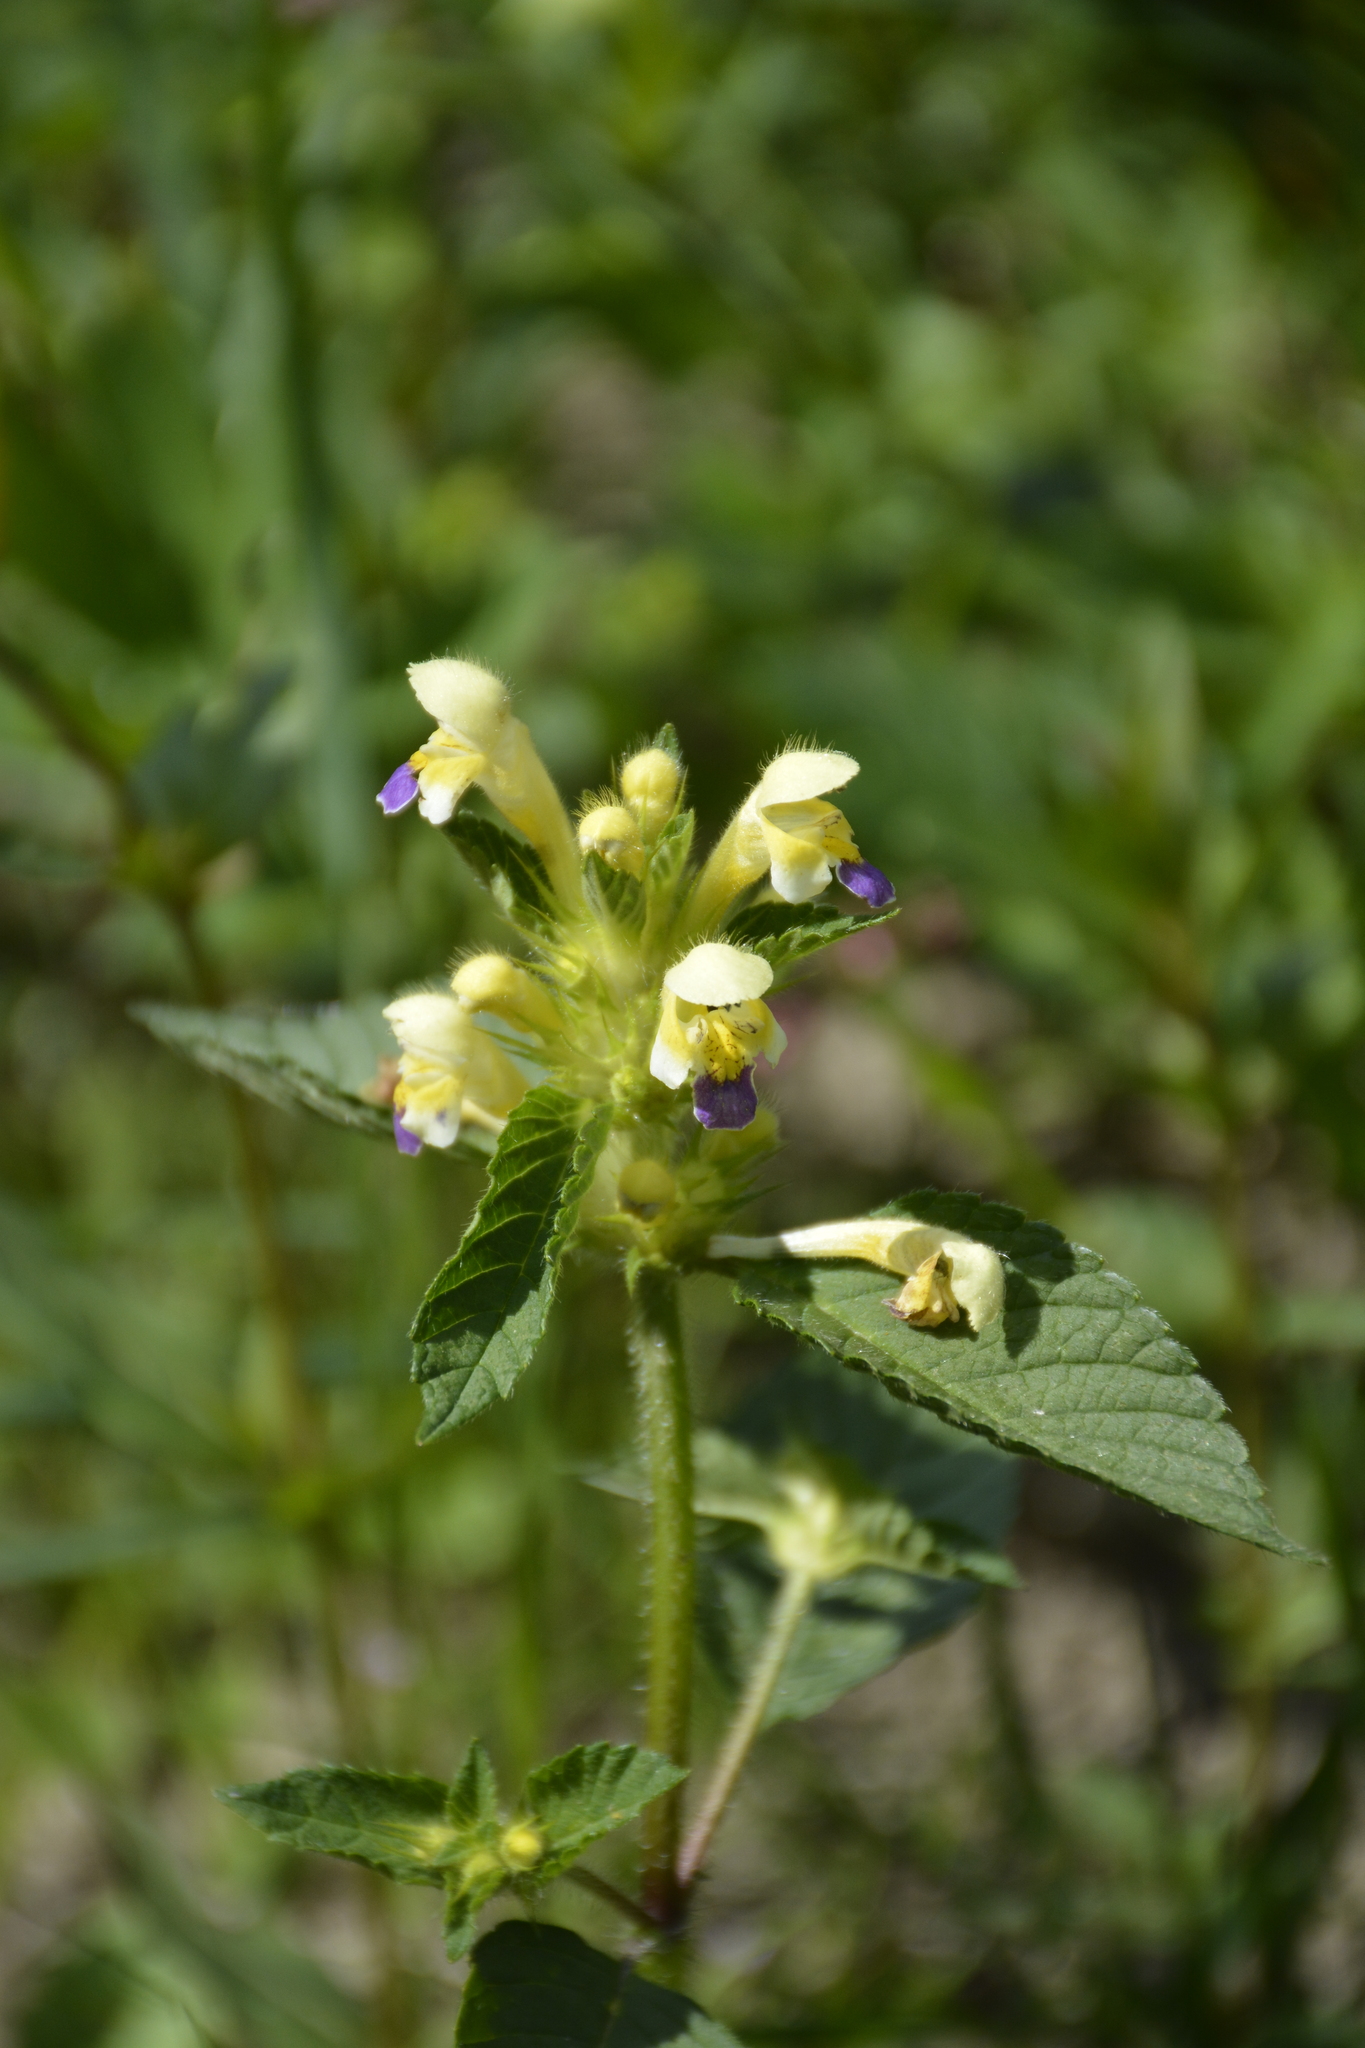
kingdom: Plantae
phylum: Tracheophyta
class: Magnoliopsida
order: Lamiales
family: Lamiaceae
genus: Galeopsis
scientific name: Galeopsis speciosa
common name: Large-flowered hemp-nettle
